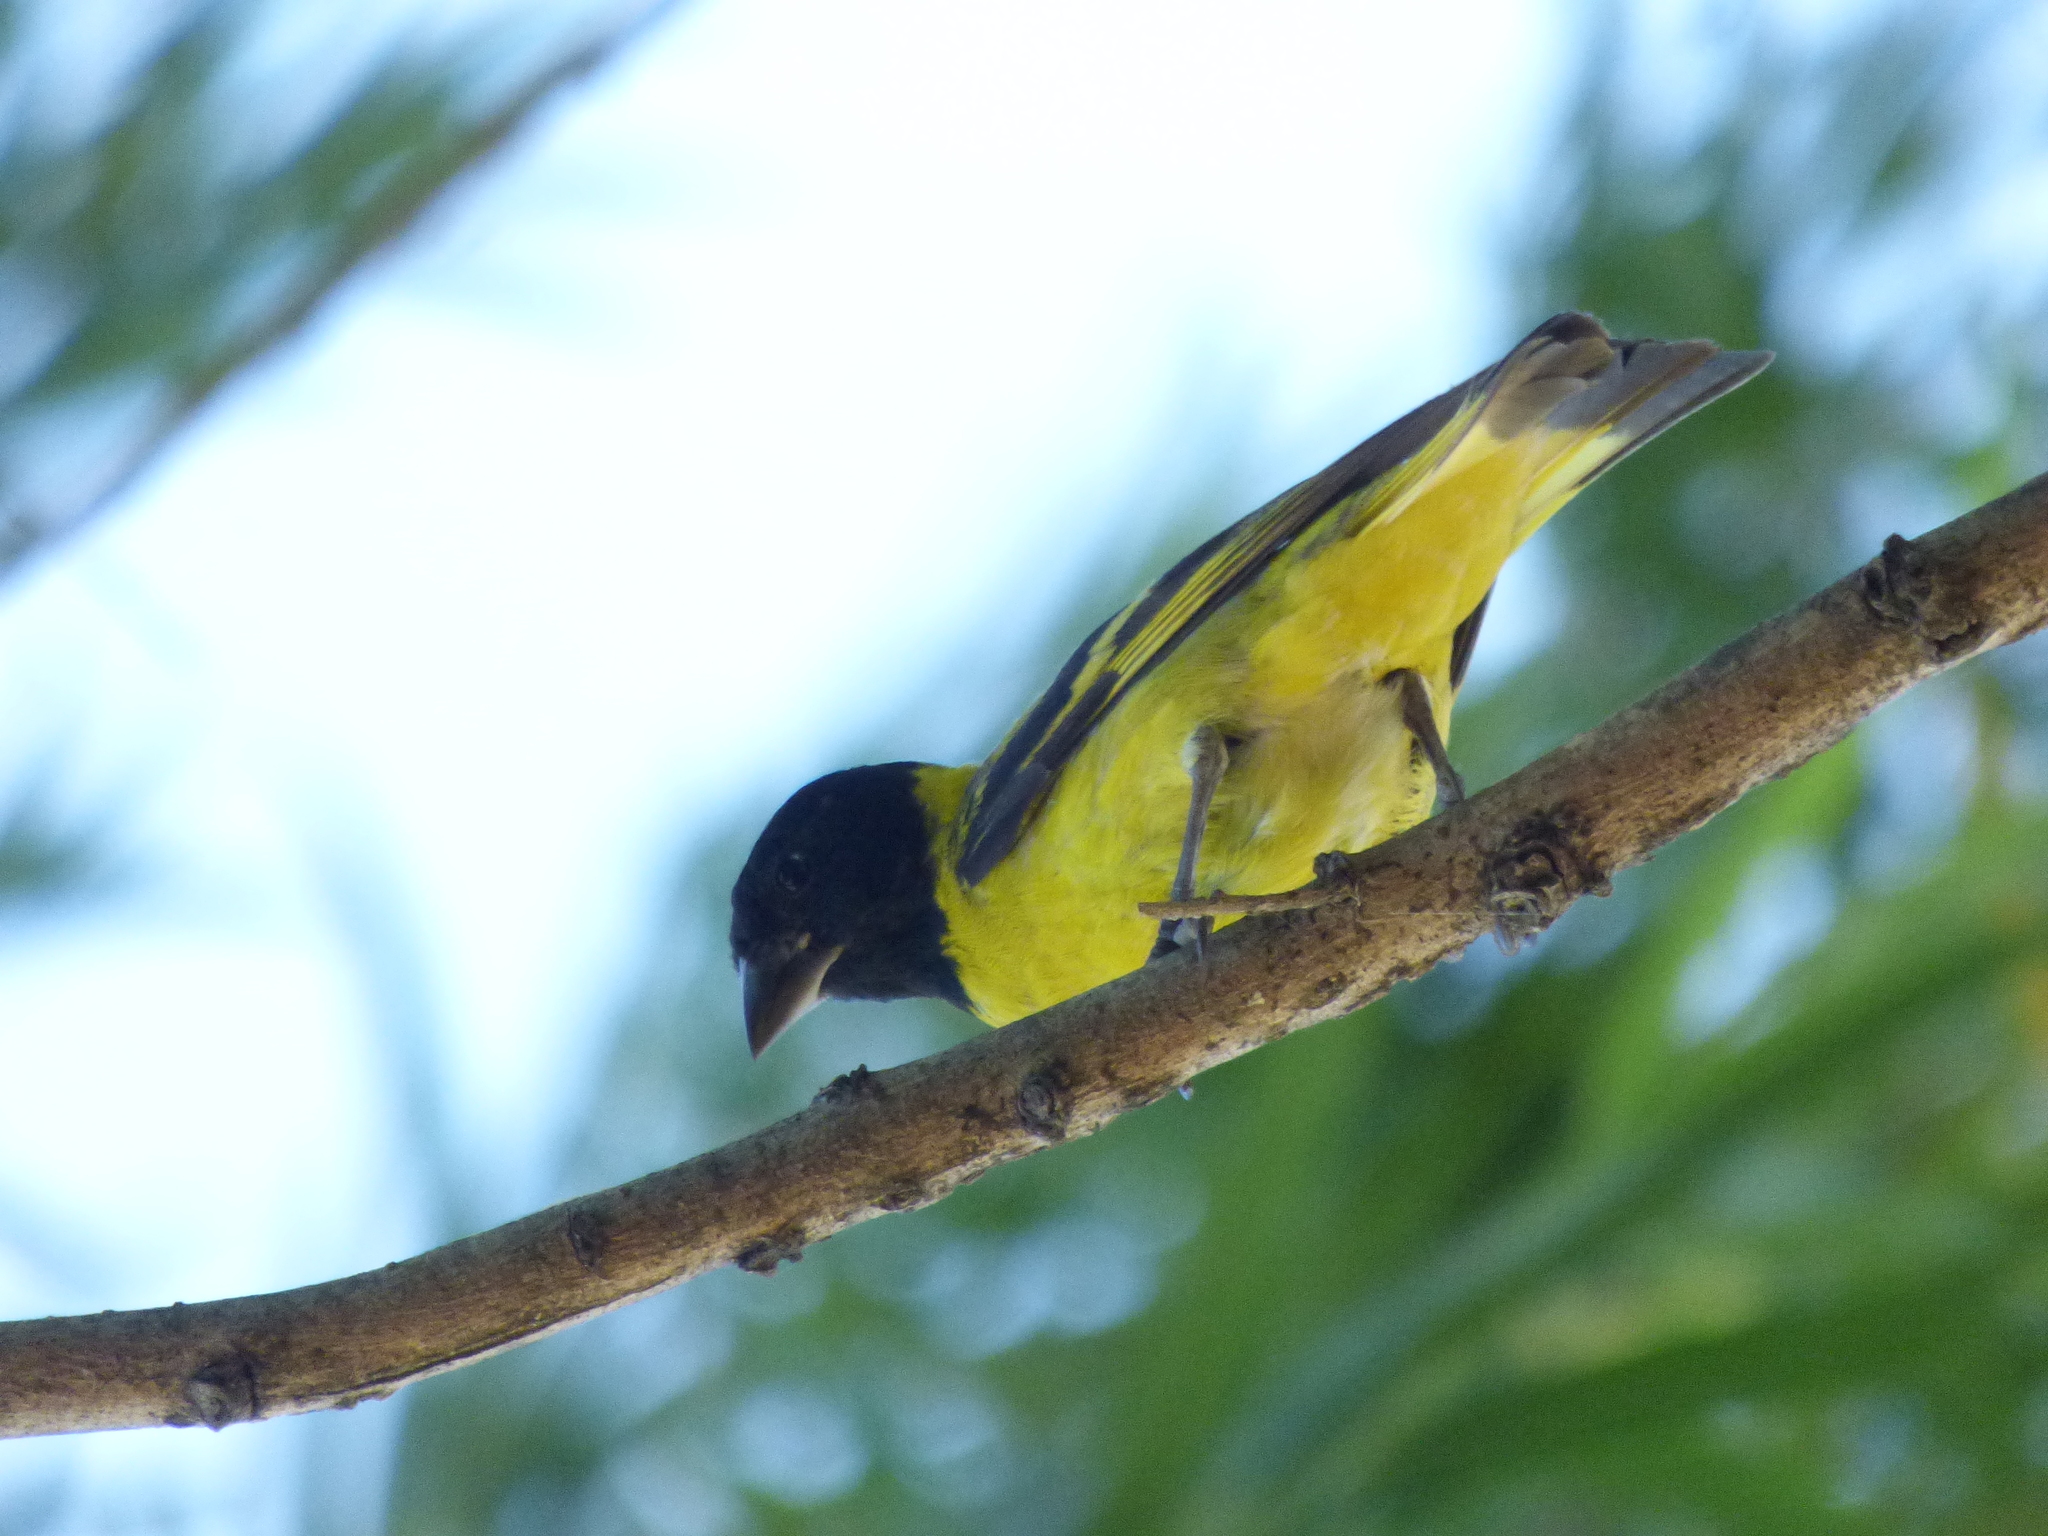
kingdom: Animalia
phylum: Chordata
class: Aves
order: Passeriformes
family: Fringillidae
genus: Spinus
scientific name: Spinus magellanicus
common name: Hooded siskin
